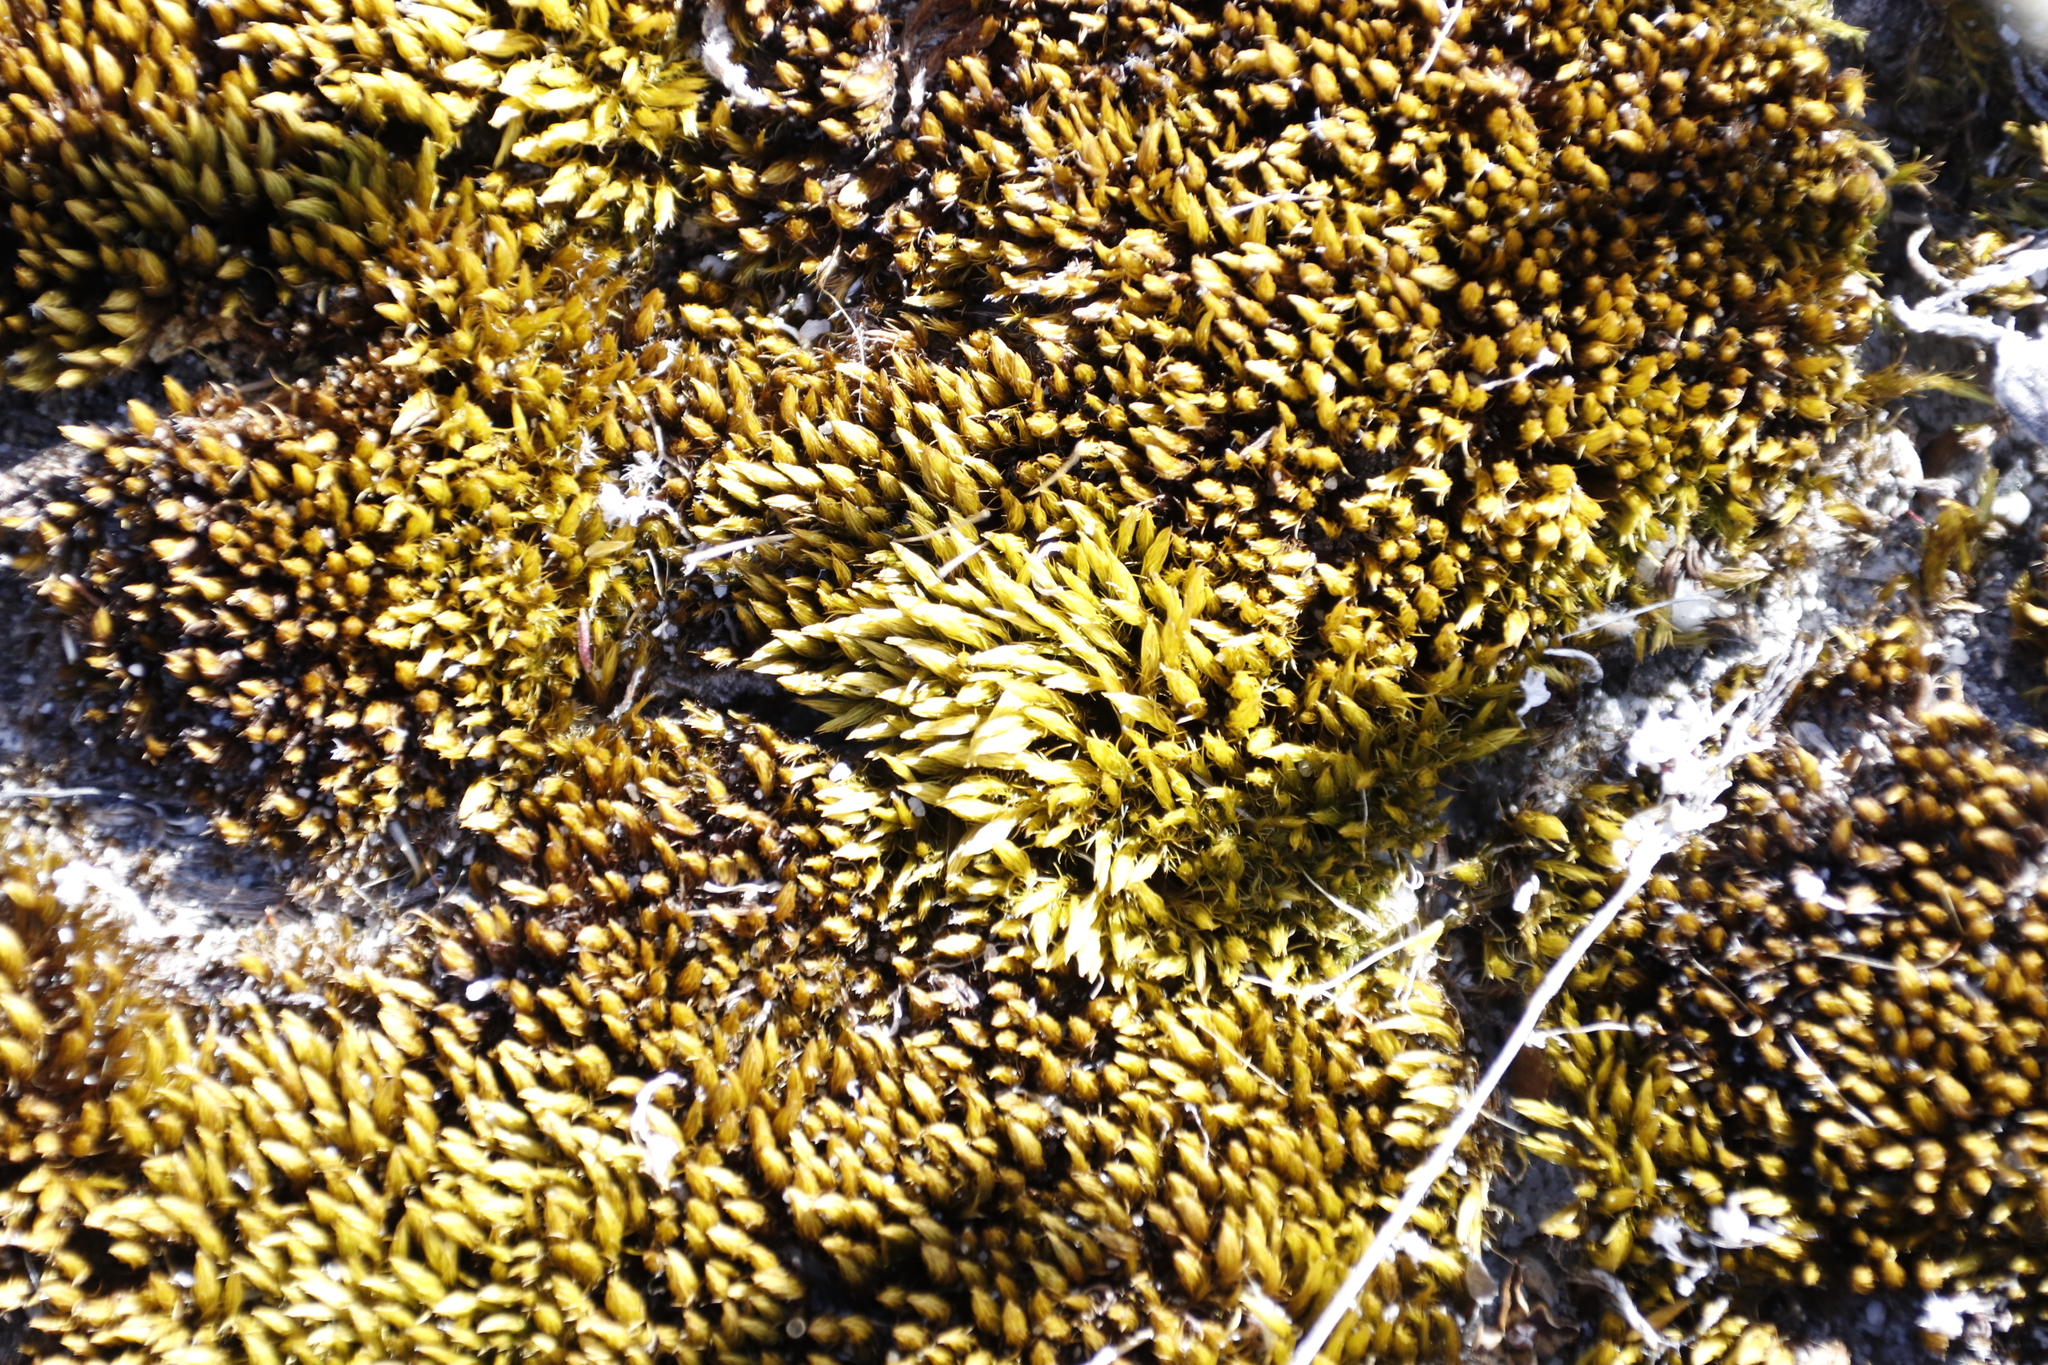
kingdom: Plantae
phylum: Bryophyta
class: Bryopsida
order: Dicranales
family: Leucobryaceae
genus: Campylopus
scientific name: Campylopus bicolor
